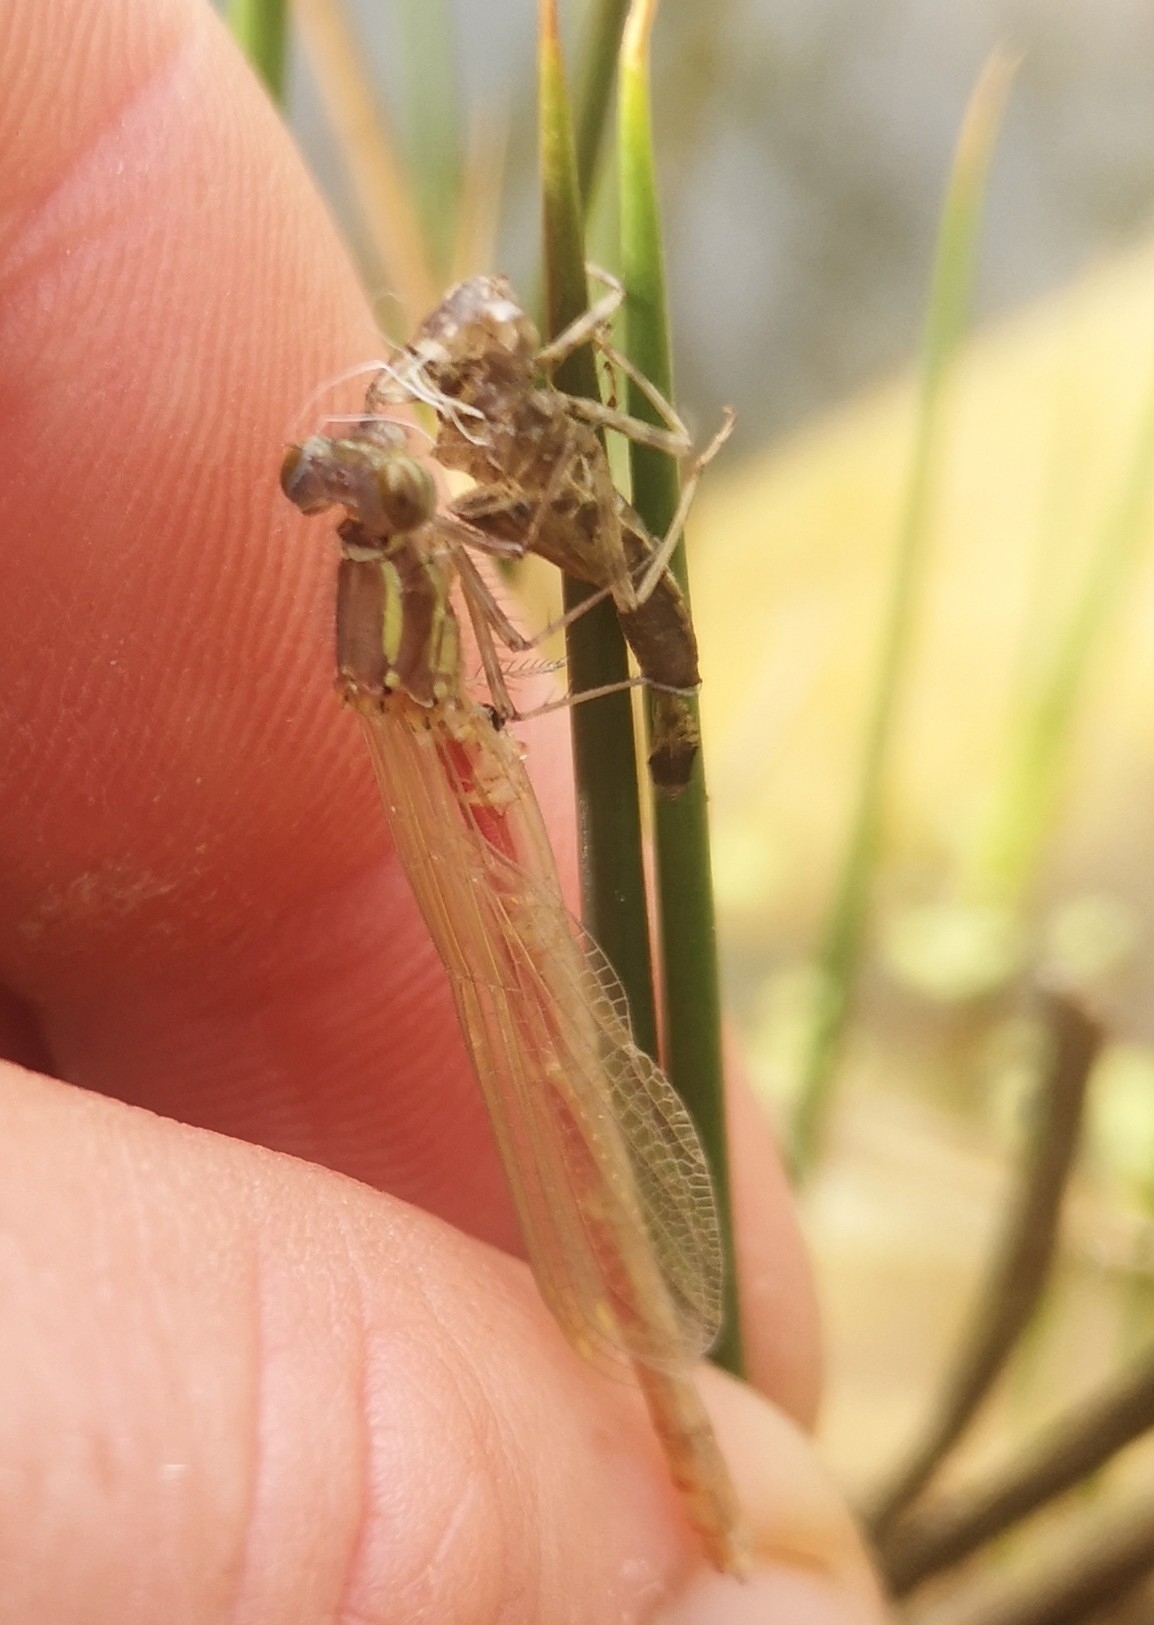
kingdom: Animalia
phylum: Arthropoda
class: Insecta
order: Odonata
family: Coenagrionidae
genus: Pyrrhosoma
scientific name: Pyrrhosoma nymphula
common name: Large red damsel
